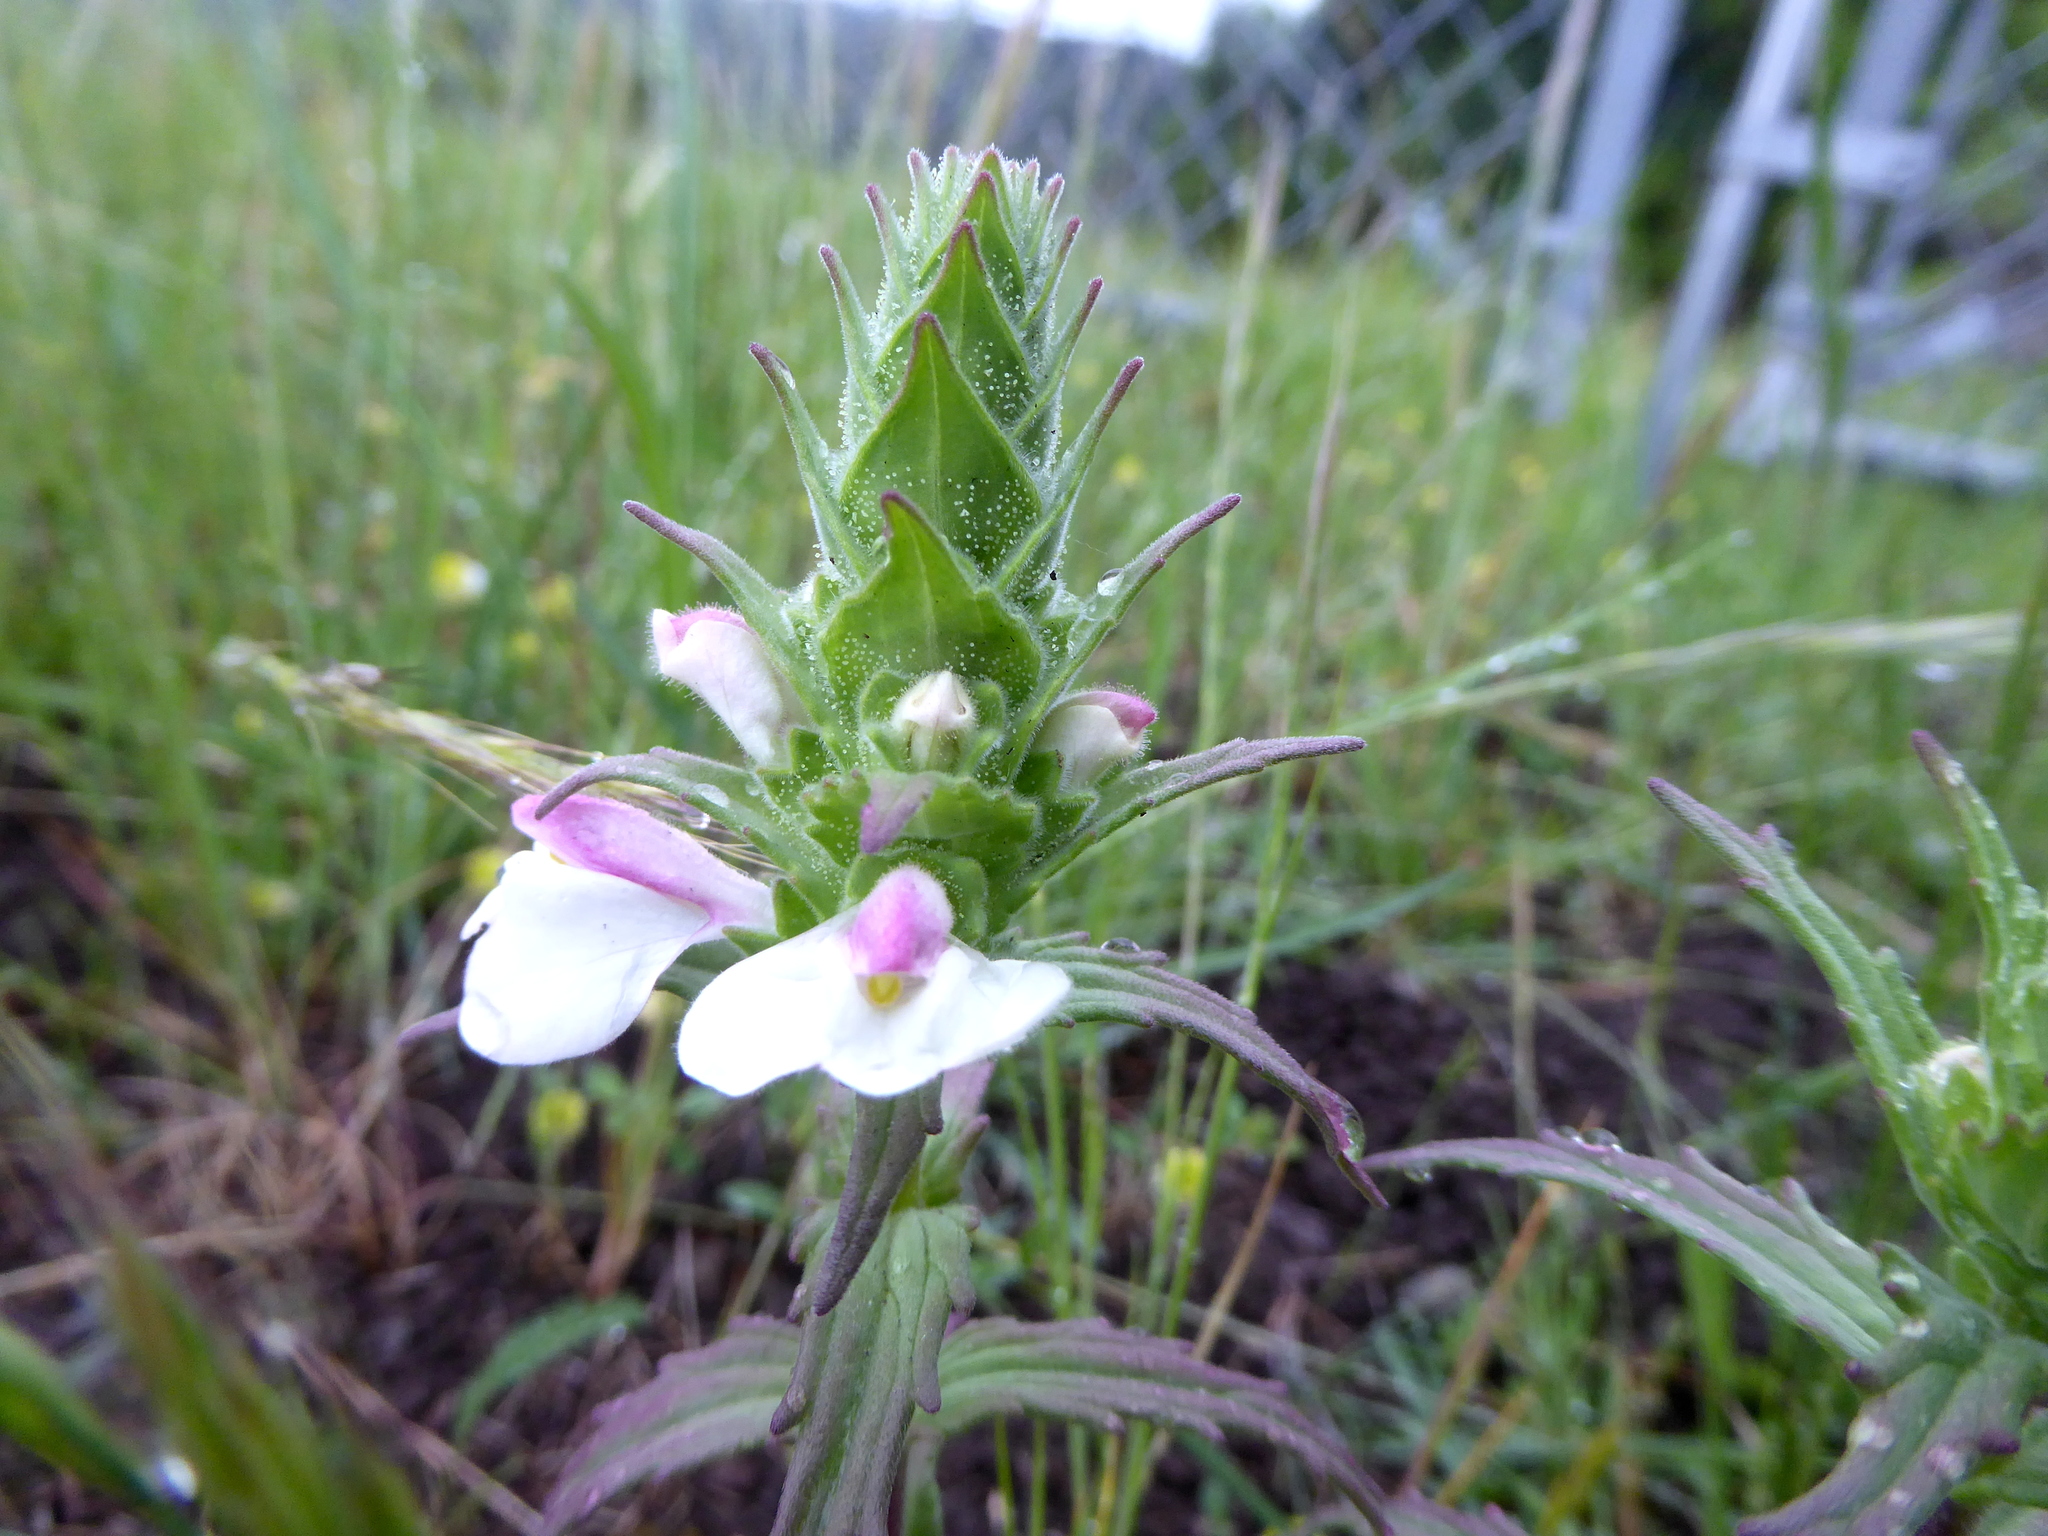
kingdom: Plantae
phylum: Tracheophyta
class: Magnoliopsida
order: Lamiales
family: Orobanchaceae
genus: Bellardia
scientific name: Bellardia trixago
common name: Mediterranean lineseed
